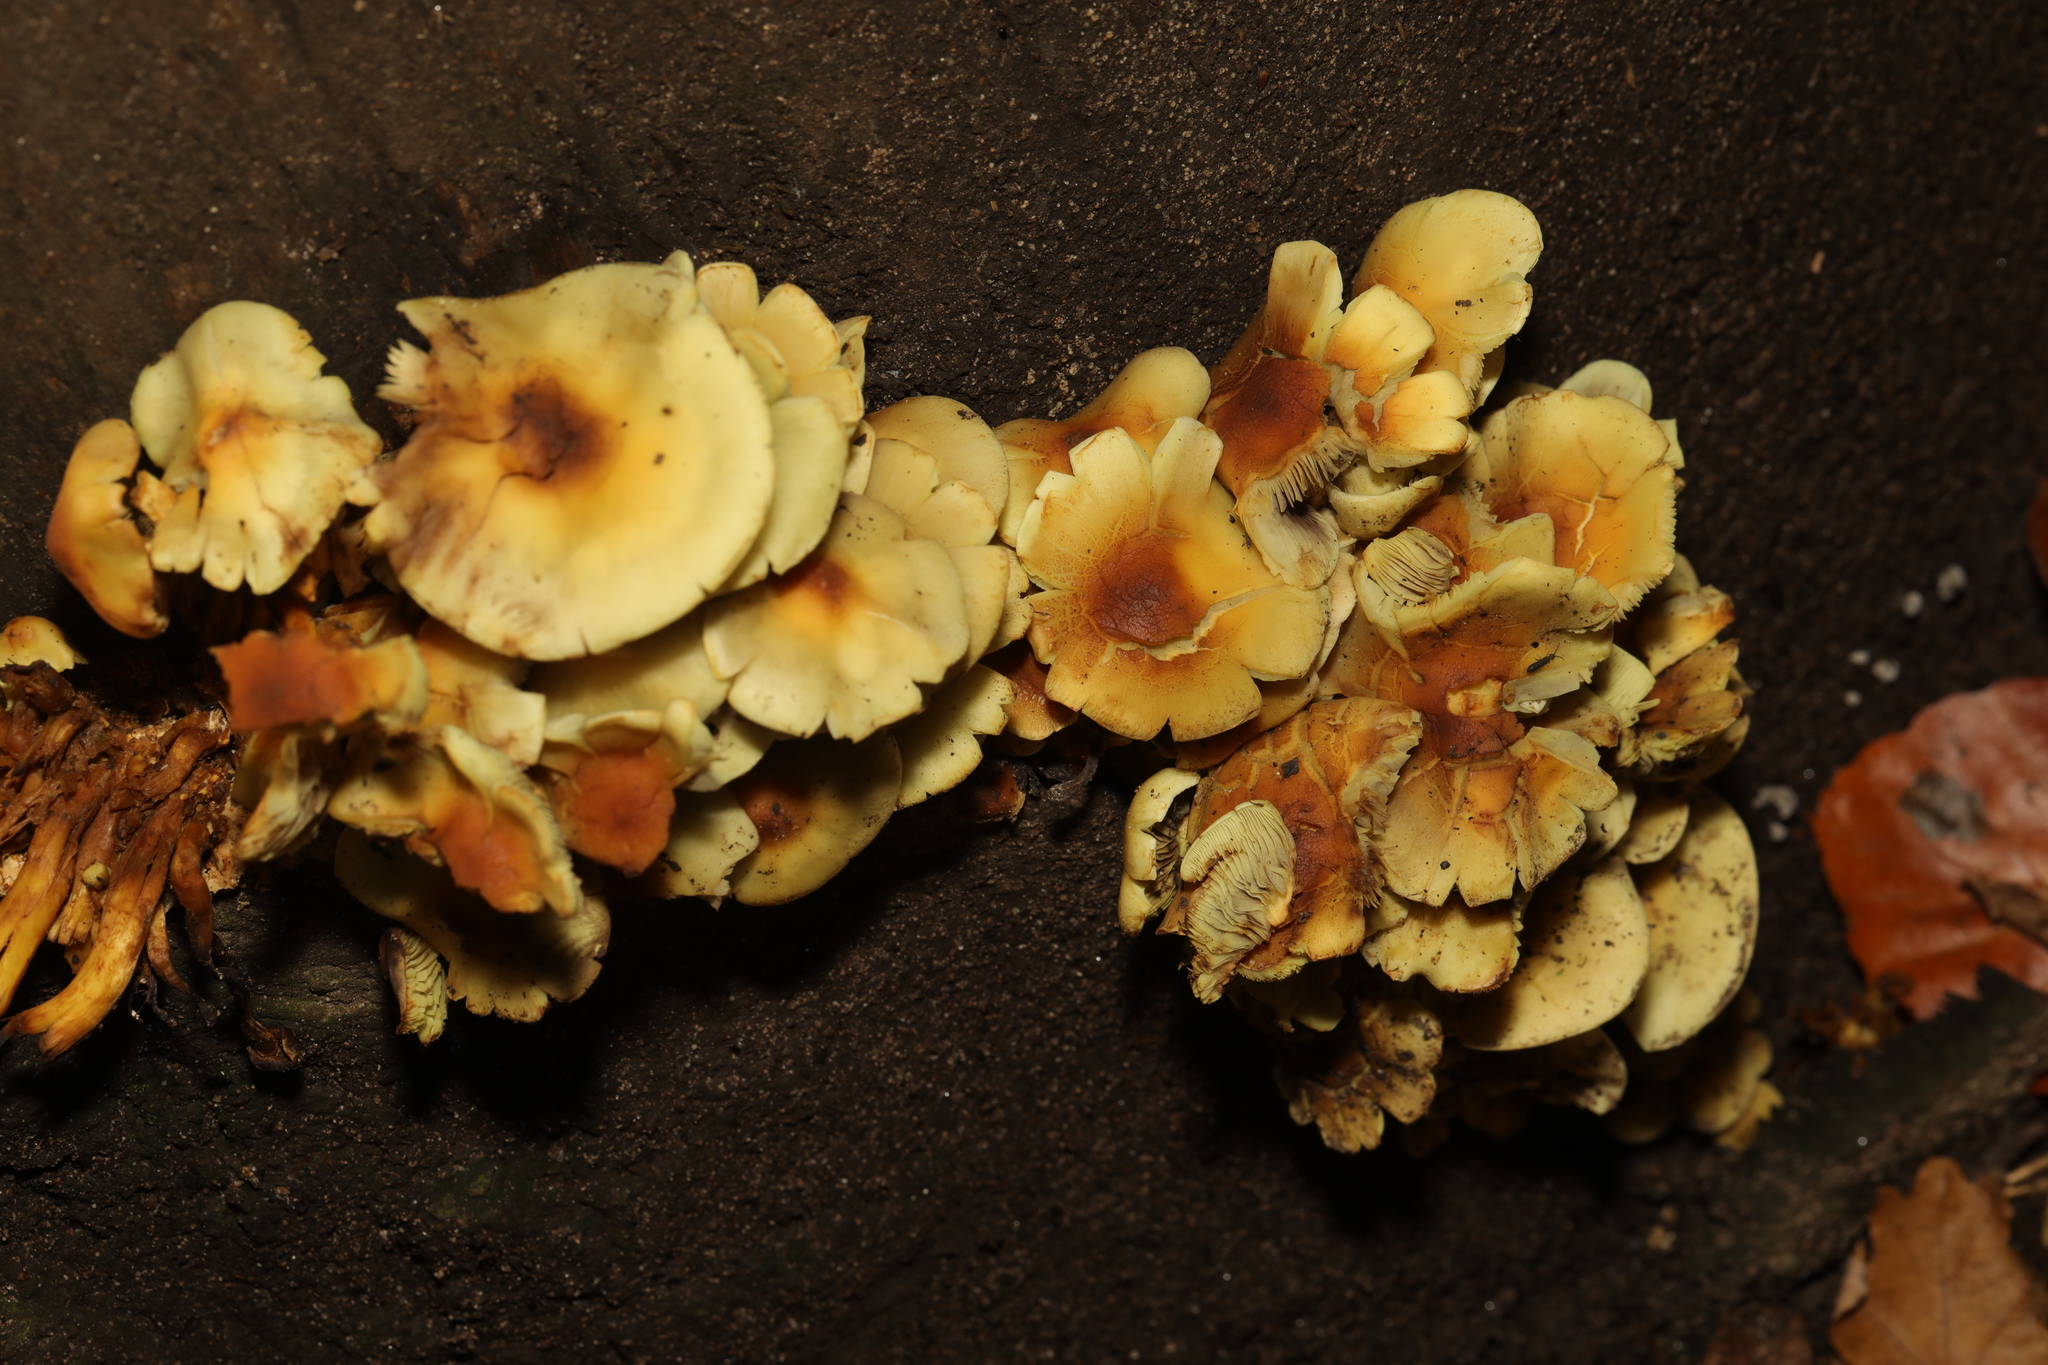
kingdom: Fungi
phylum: Basidiomycota
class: Agaricomycetes
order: Agaricales
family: Strophariaceae
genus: Hypholoma
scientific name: Hypholoma fasciculare
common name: Sulphur tuft
